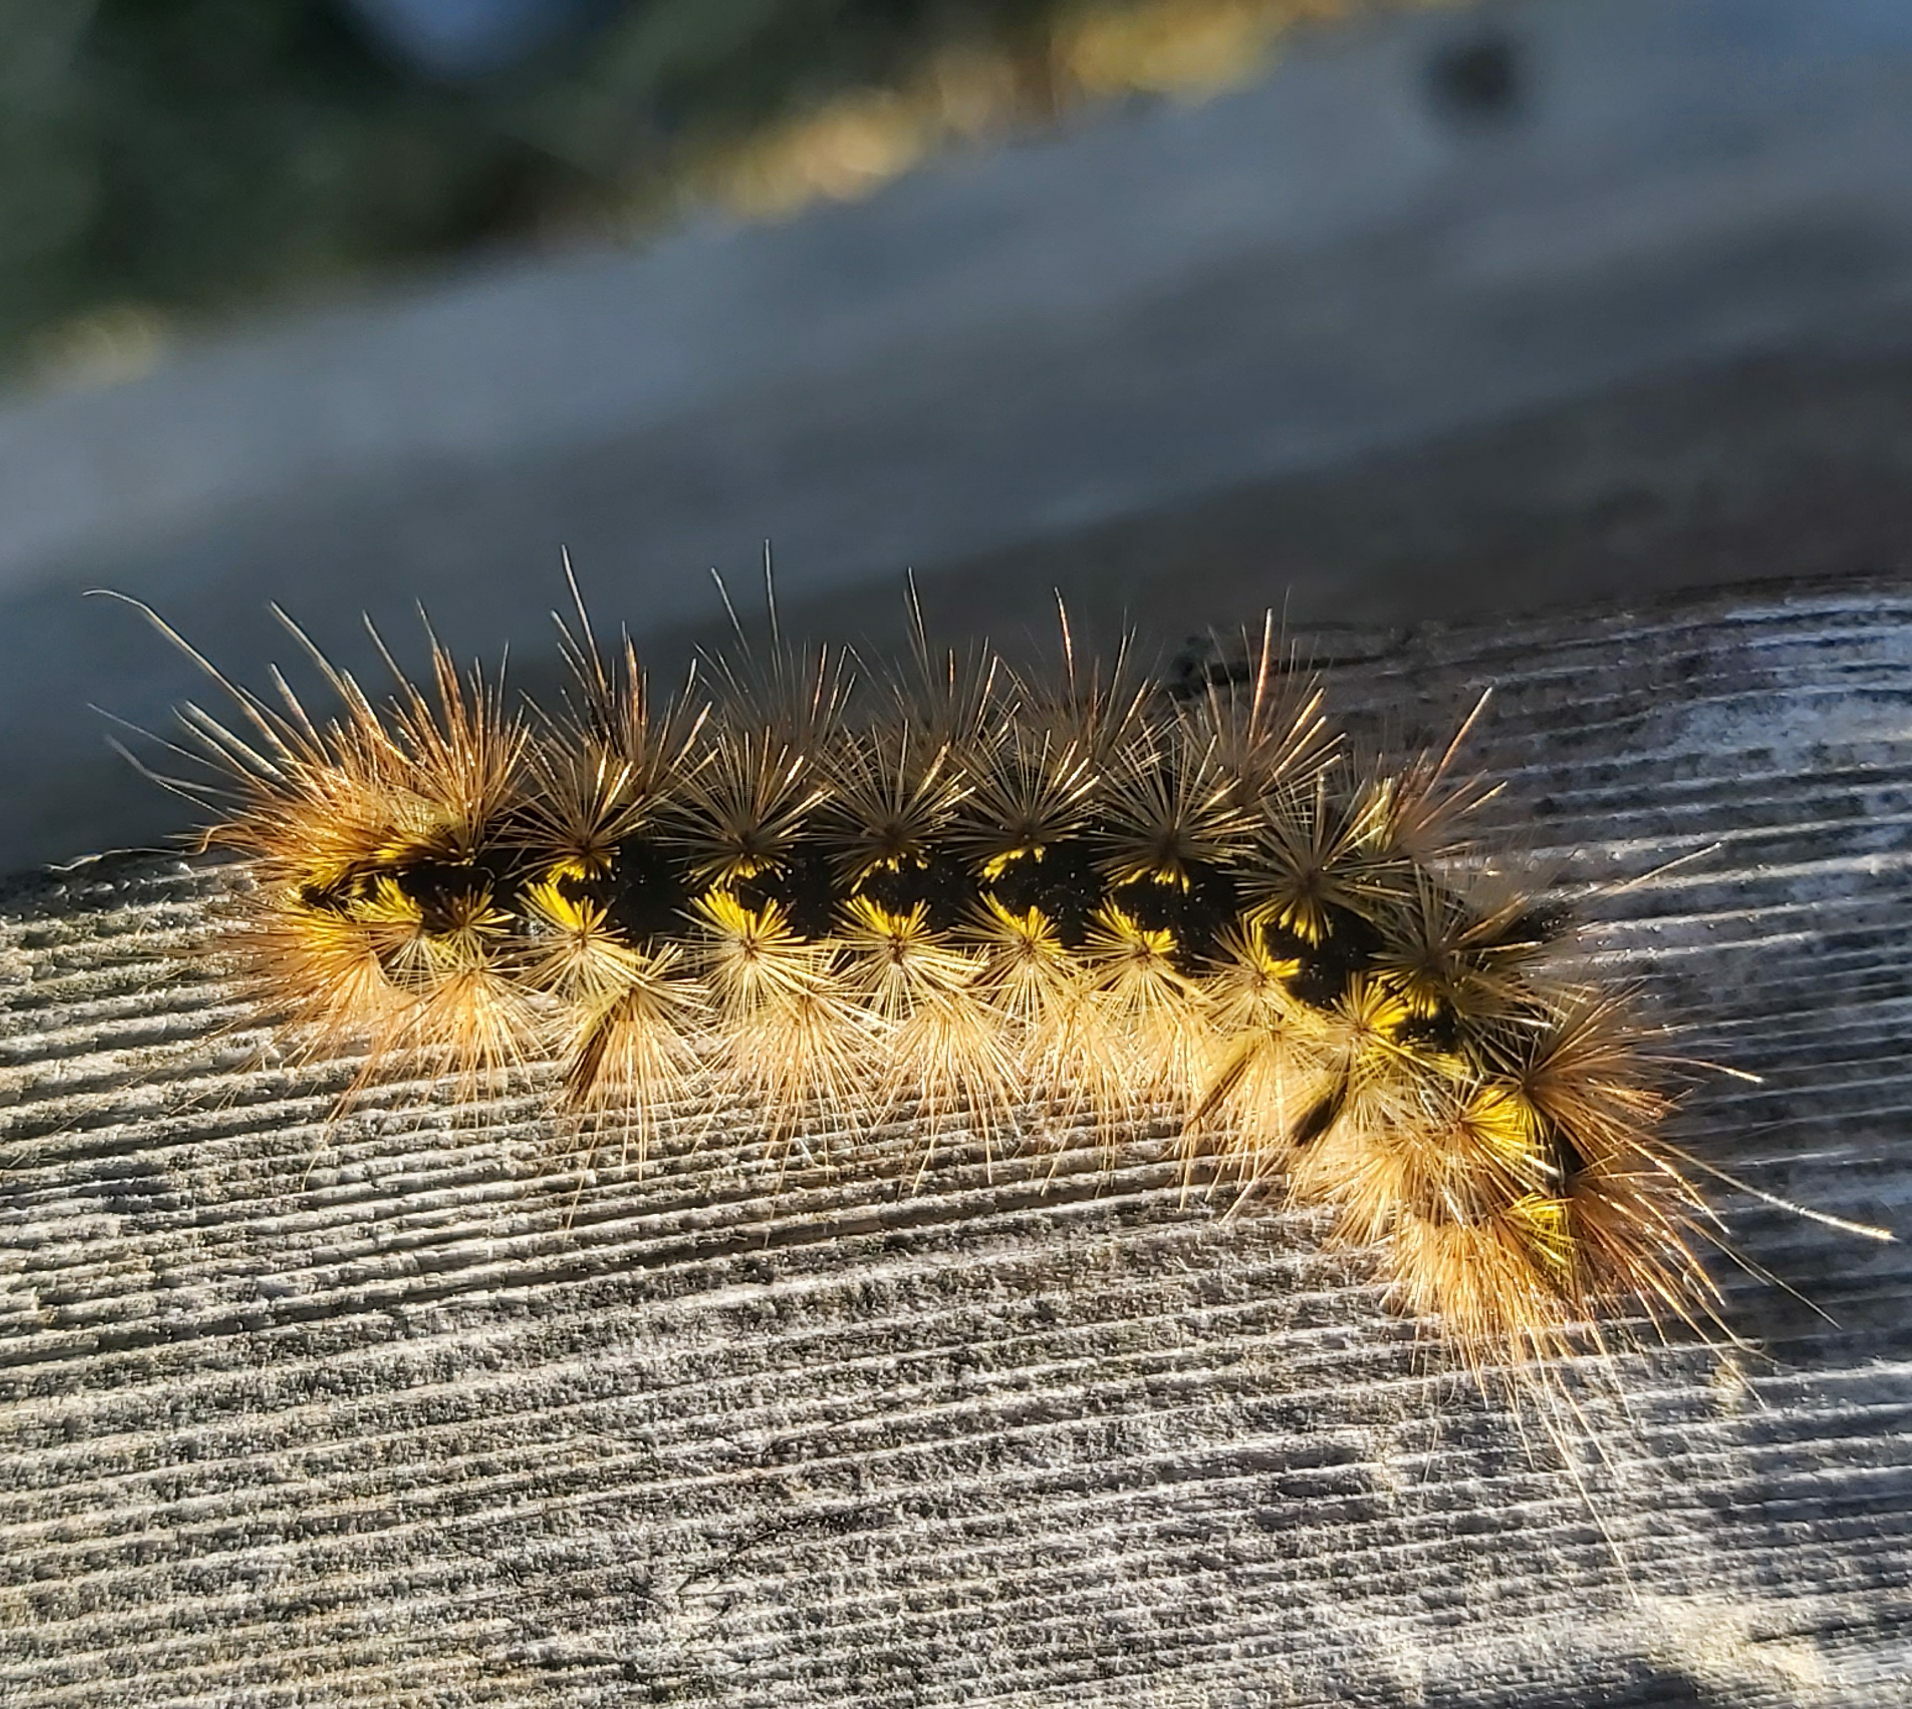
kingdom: Animalia
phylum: Arthropoda
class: Insecta
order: Lepidoptera
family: Erebidae
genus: Lophocampa
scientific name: Lophocampa argentata
